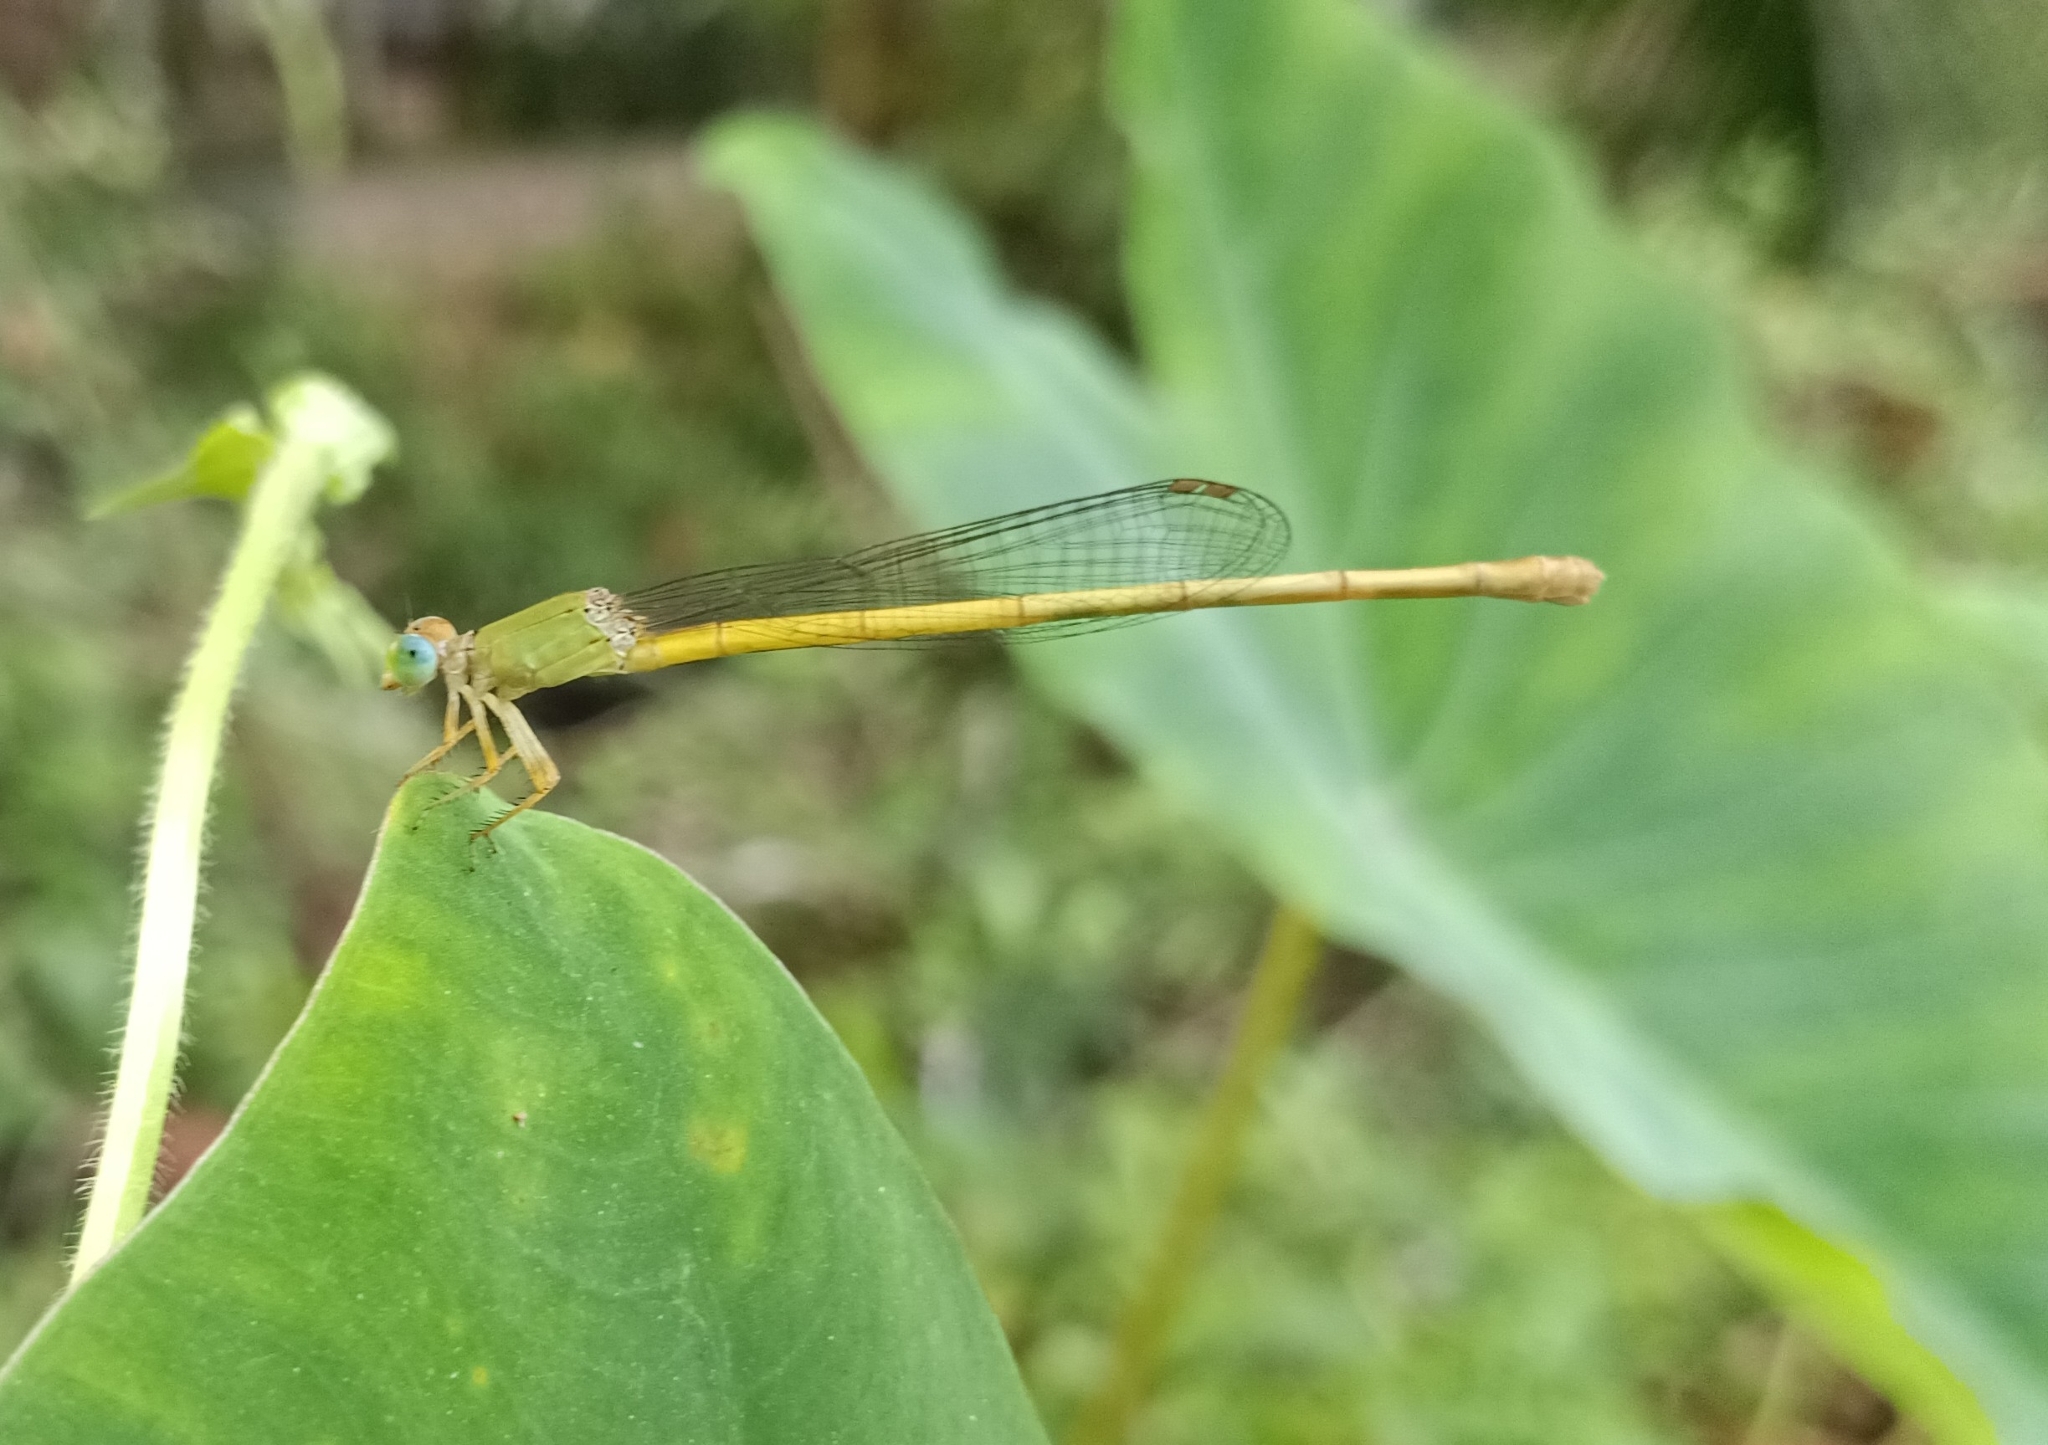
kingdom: Animalia
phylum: Arthropoda
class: Insecta
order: Odonata
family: Coenagrionidae
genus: Ceriagrion
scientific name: Ceriagrion coromandelianum
